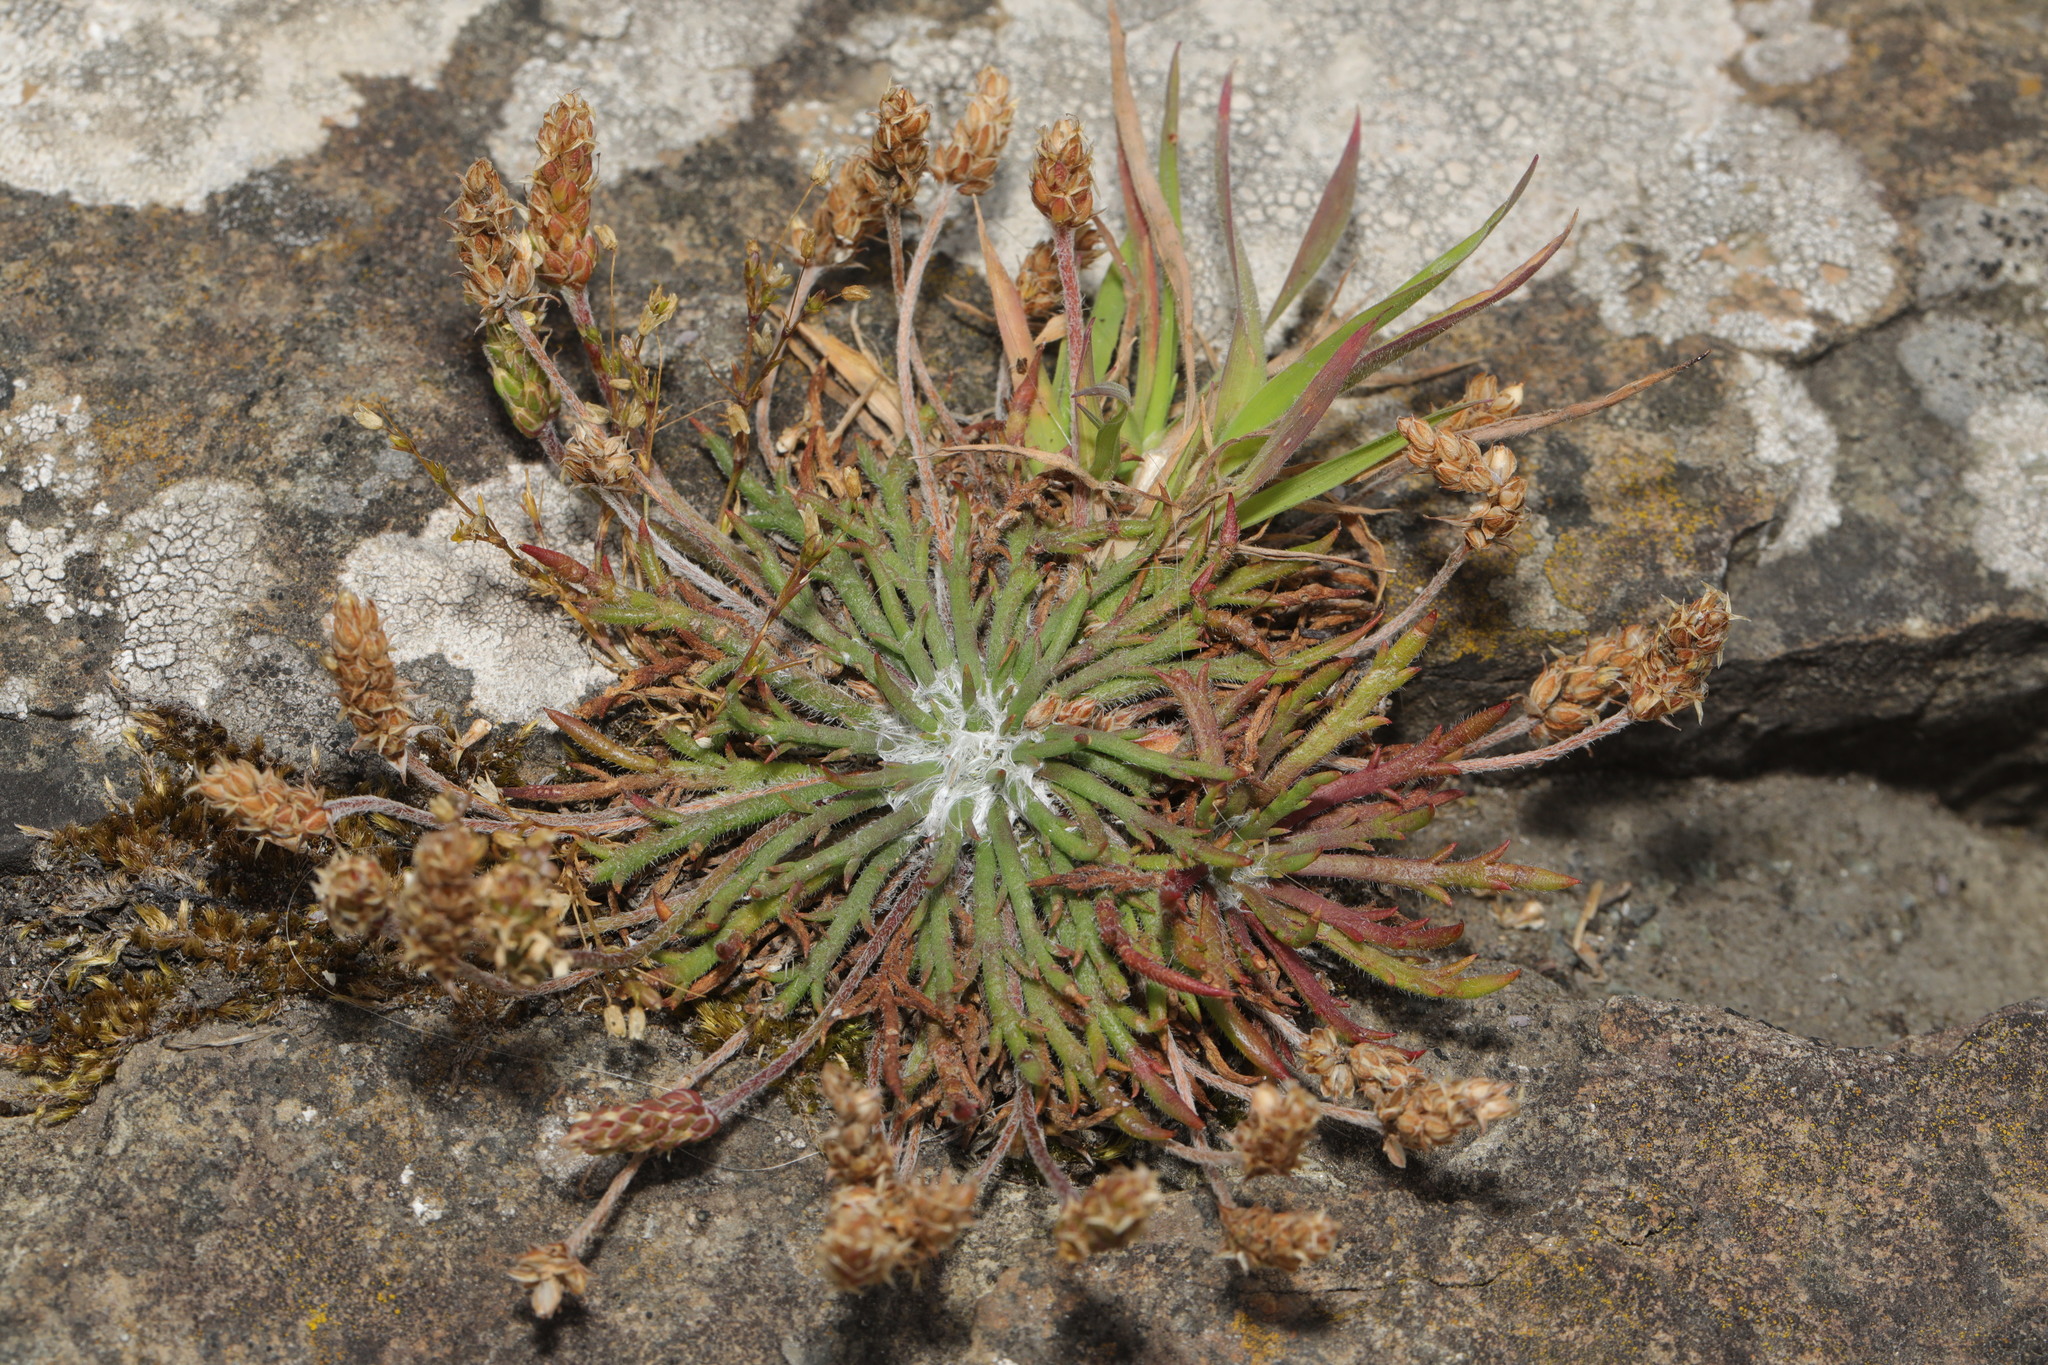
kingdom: Plantae
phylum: Tracheophyta
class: Magnoliopsida
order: Lamiales
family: Plantaginaceae
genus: Plantago
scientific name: Plantago coronopus
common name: Buck's-horn plantain
